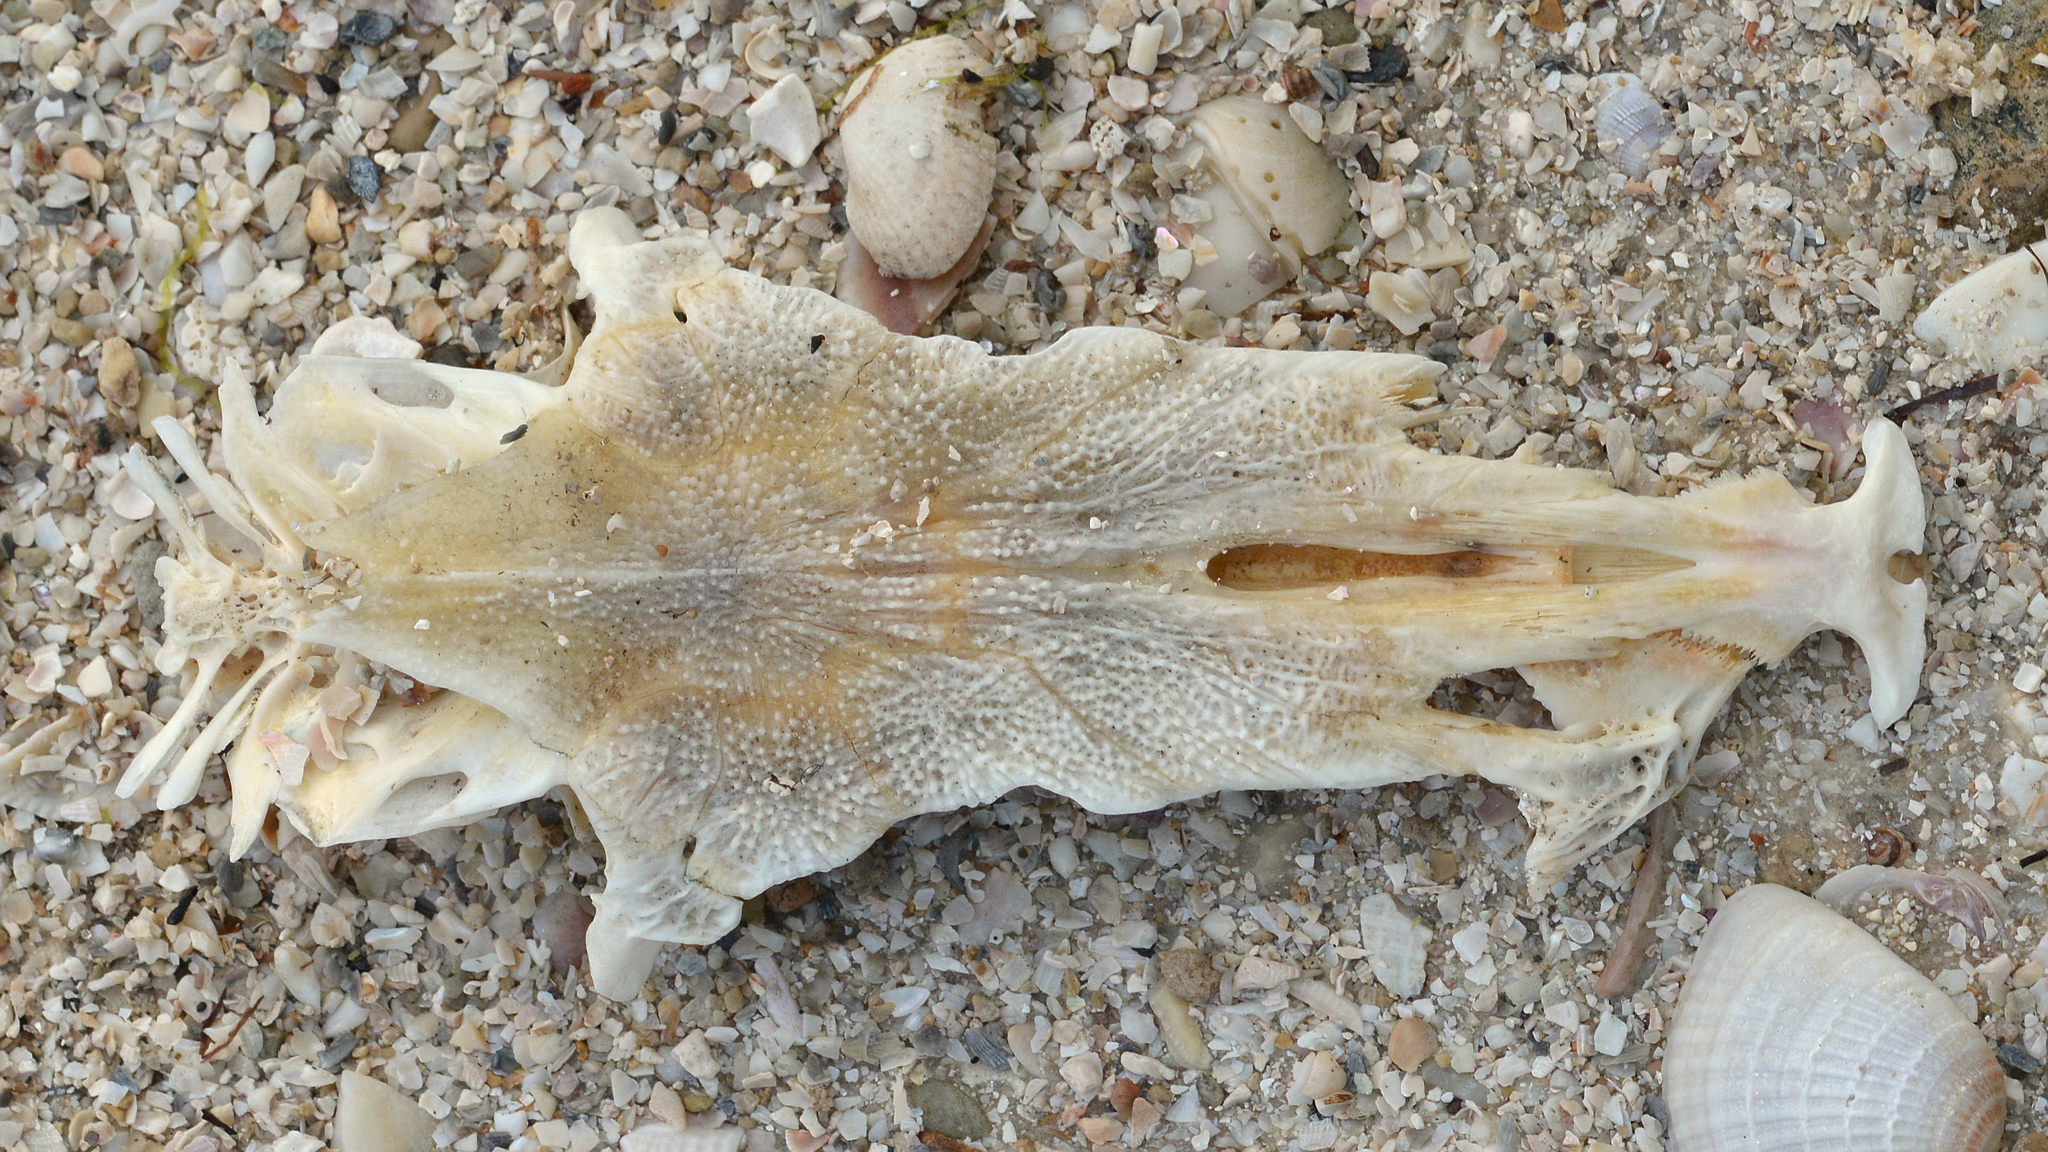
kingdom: Animalia
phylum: Chordata
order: Siluriformes
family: Ariidae
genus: Ariopsis
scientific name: Ariopsis felis
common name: Hardhead catfish
